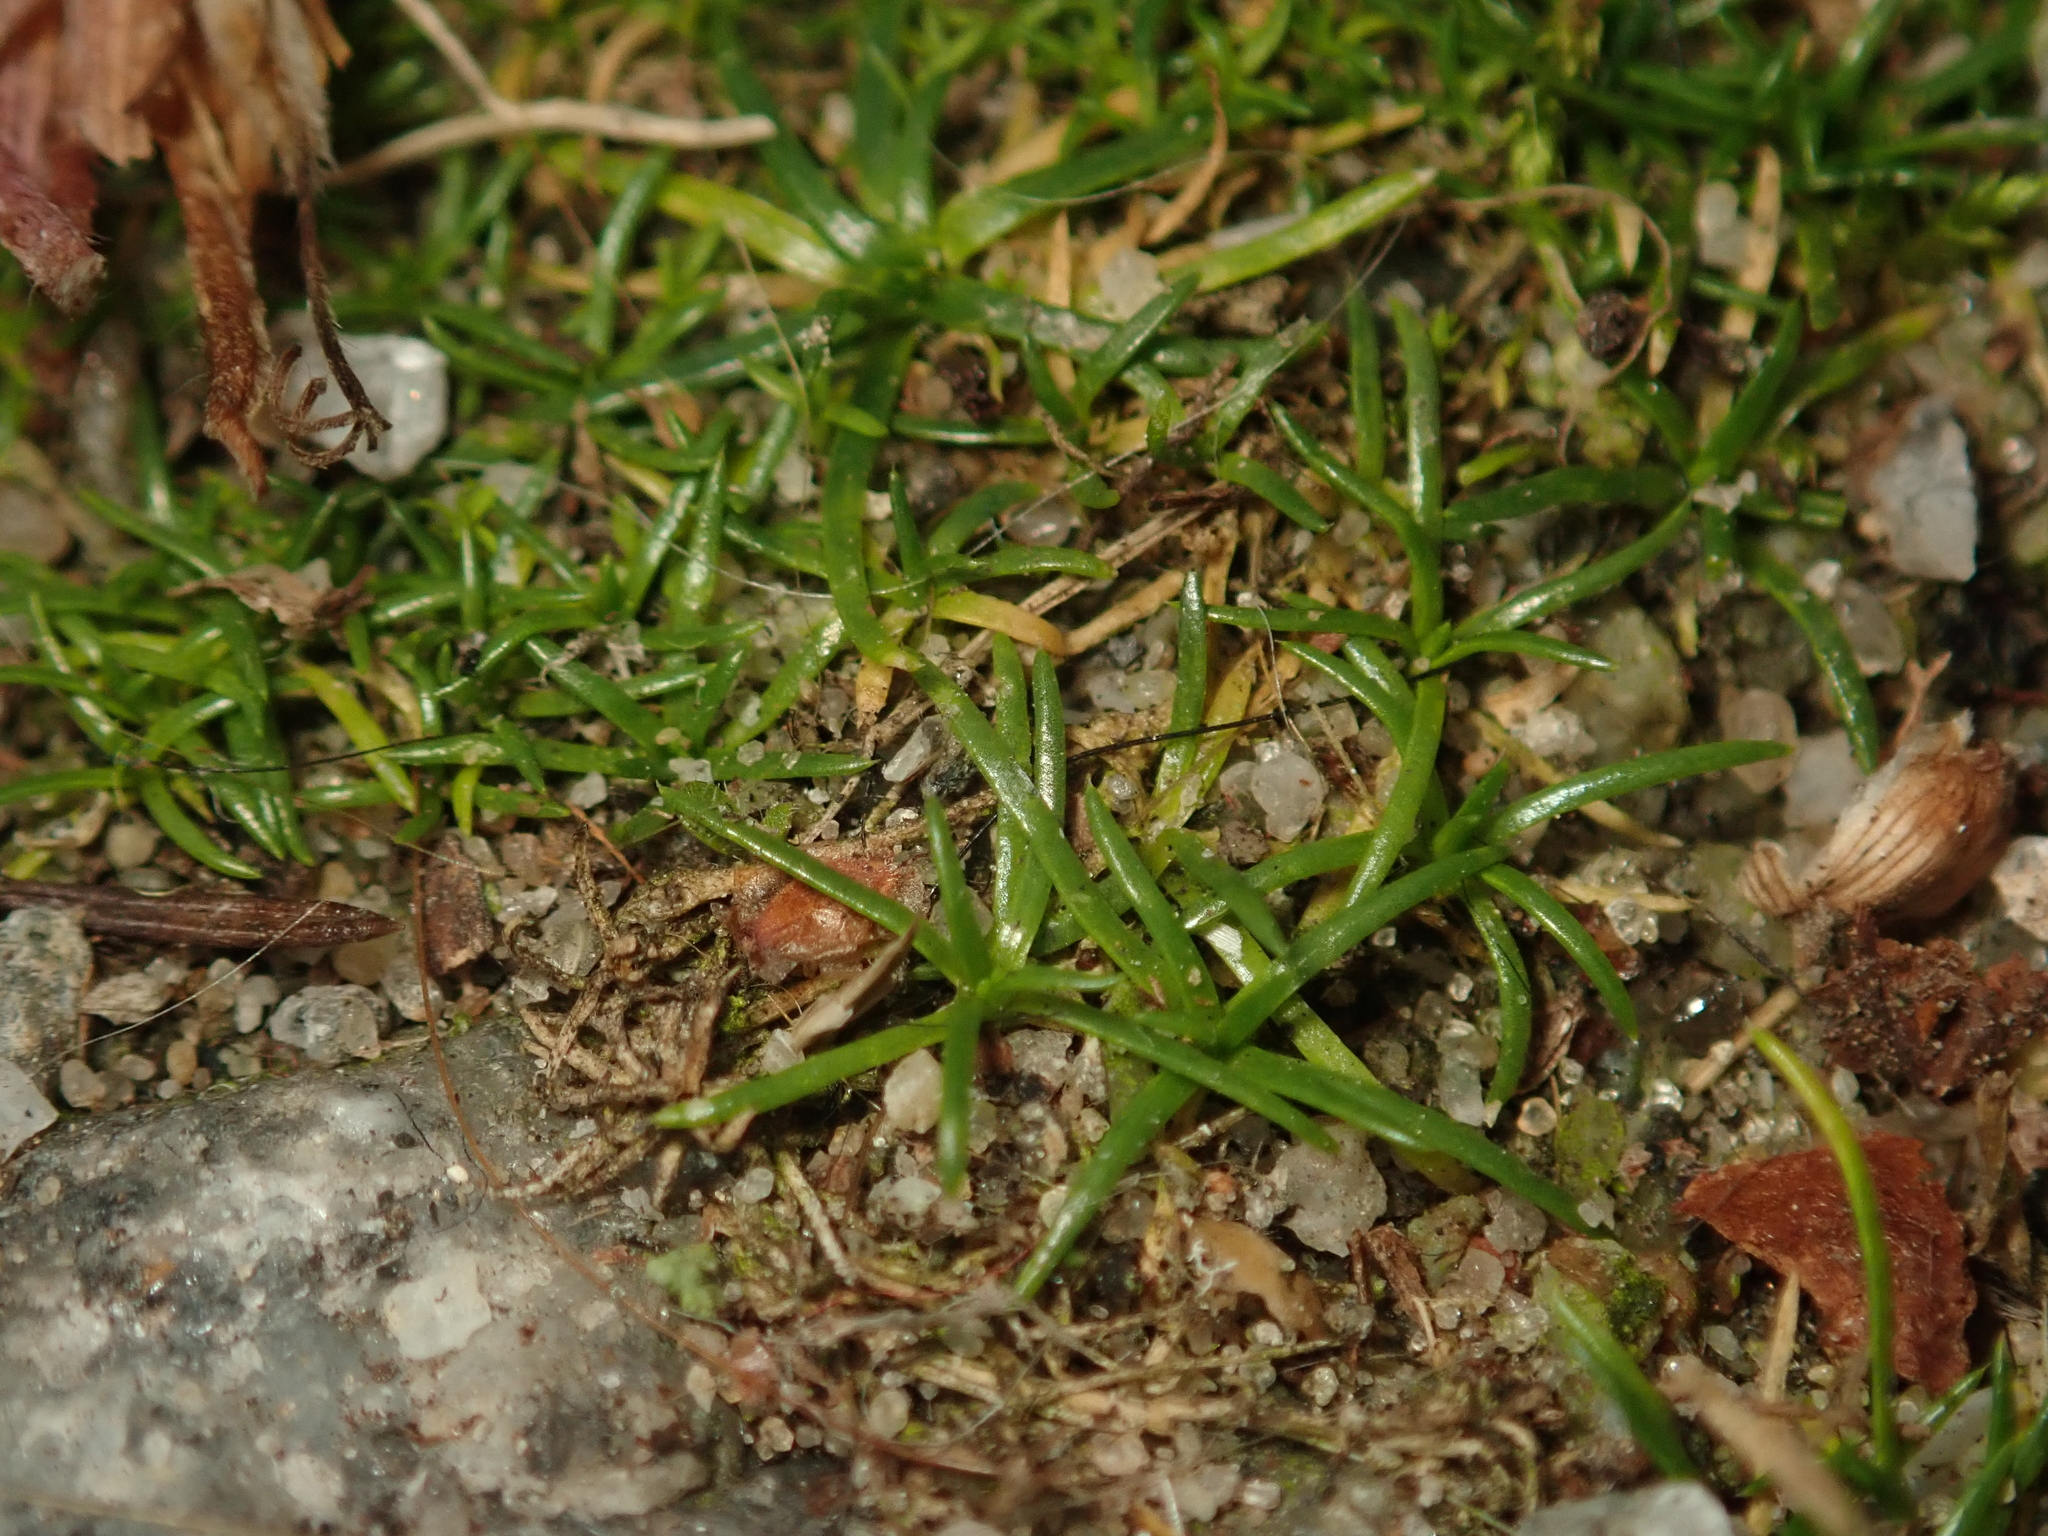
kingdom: Plantae
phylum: Tracheophyta
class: Magnoliopsida
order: Caryophyllales
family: Caryophyllaceae
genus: Sagina
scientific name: Sagina procumbens
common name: Procumbent pearlwort
